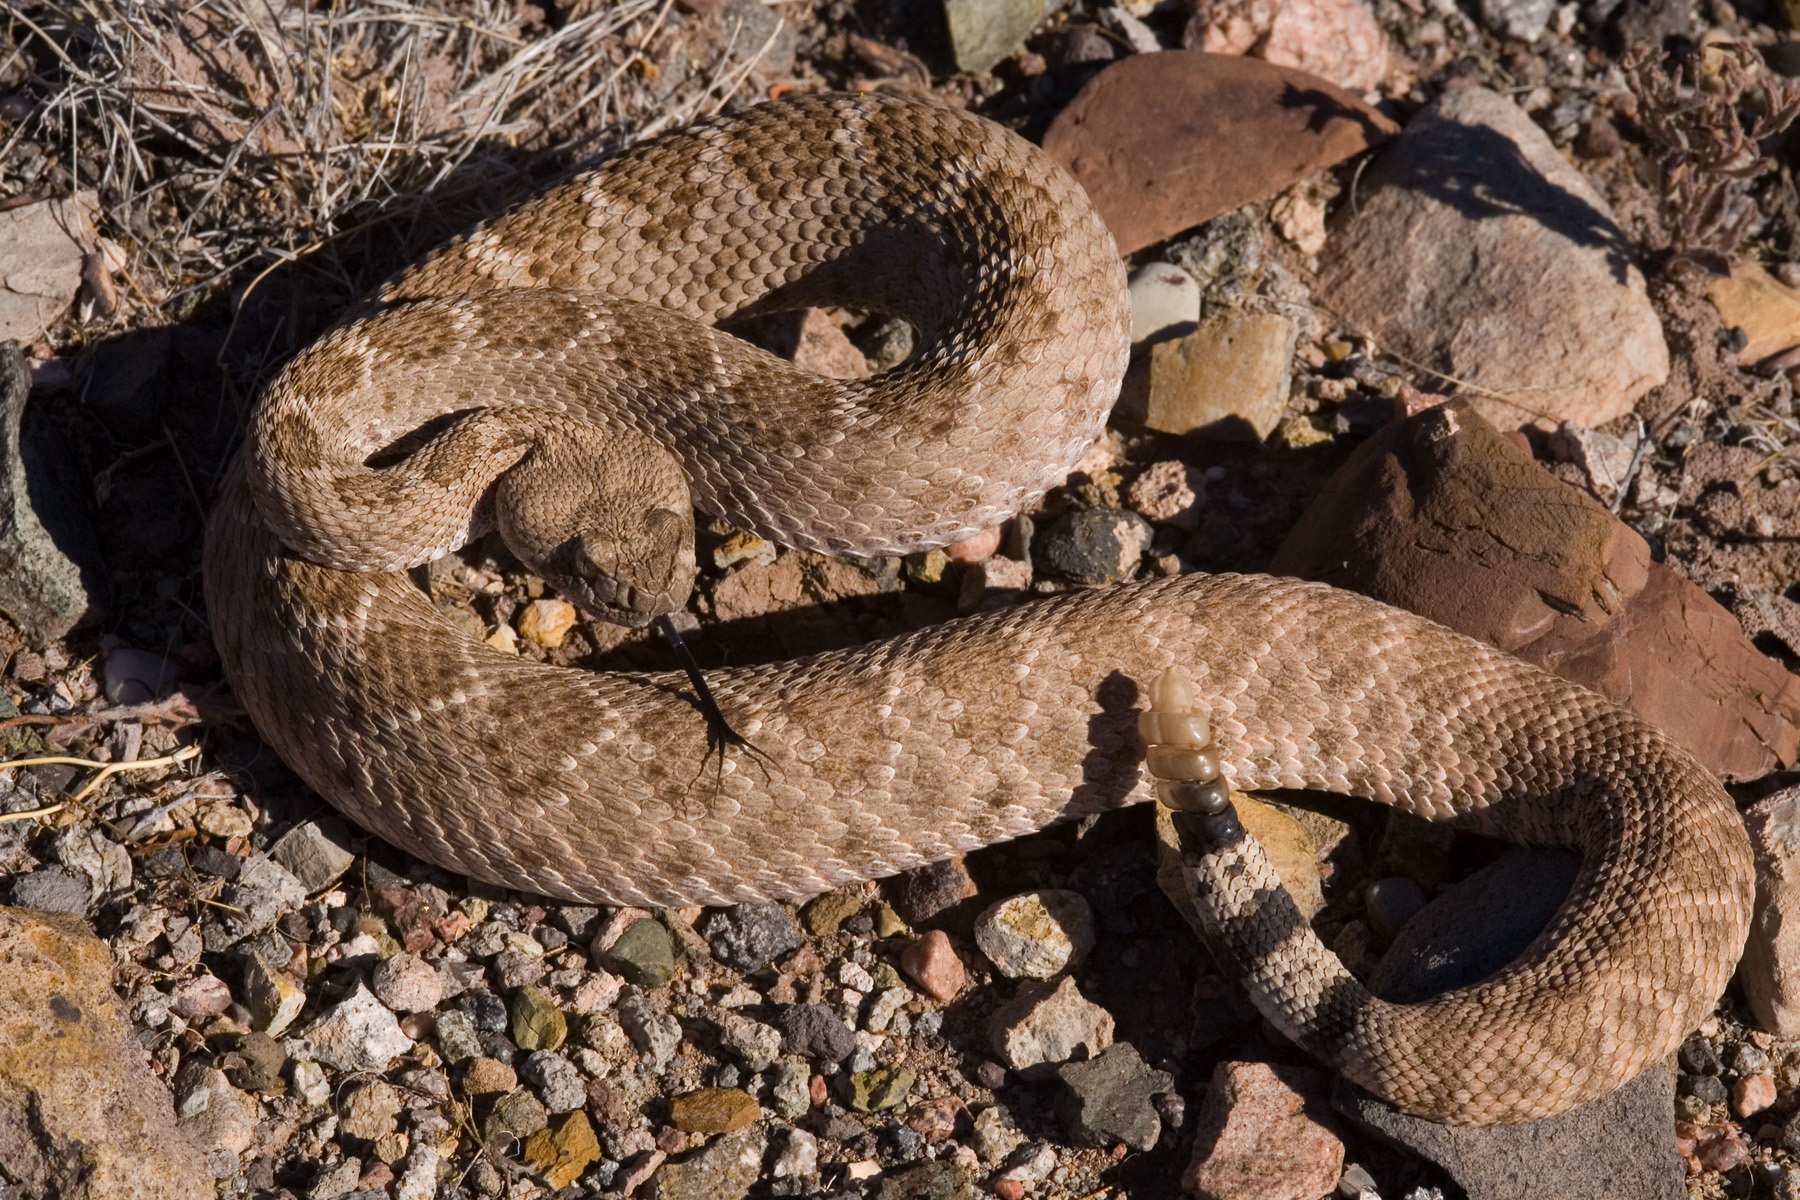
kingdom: Animalia
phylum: Chordata
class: Squamata
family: Viperidae
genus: Crotalus
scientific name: Crotalus atrox
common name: Western diamond-backed rattlesnake
